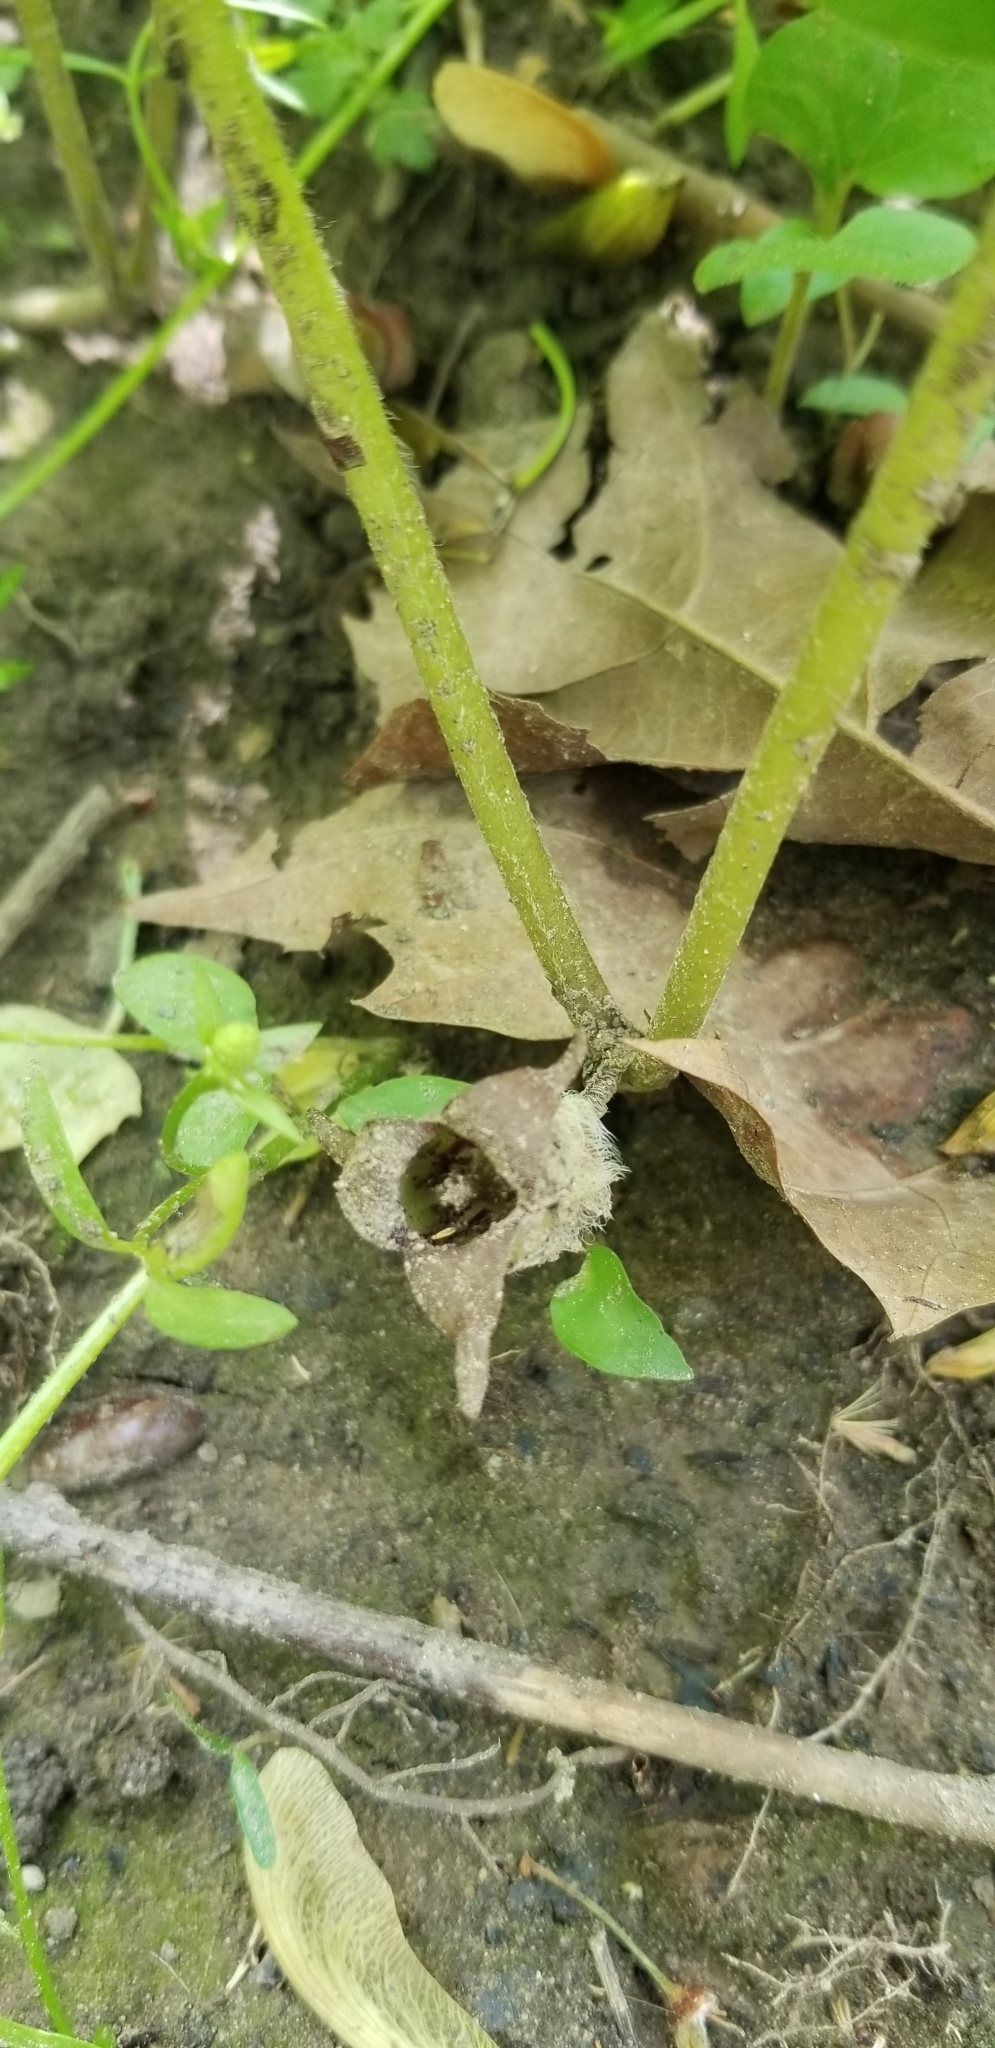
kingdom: Plantae
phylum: Tracheophyta
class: Magnoliopsida
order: Piperales
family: Aristolochiaceae
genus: Asarum
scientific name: Asarum canadense
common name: Wild ginger
